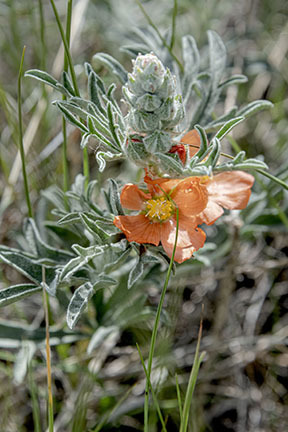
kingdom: Plantae
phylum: Tracheophyta
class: Magnoliopsida
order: Malvales
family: Malvaceae
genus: Sphaeralcea
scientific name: Sphaeralcea coccinea
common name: Moss-rose
